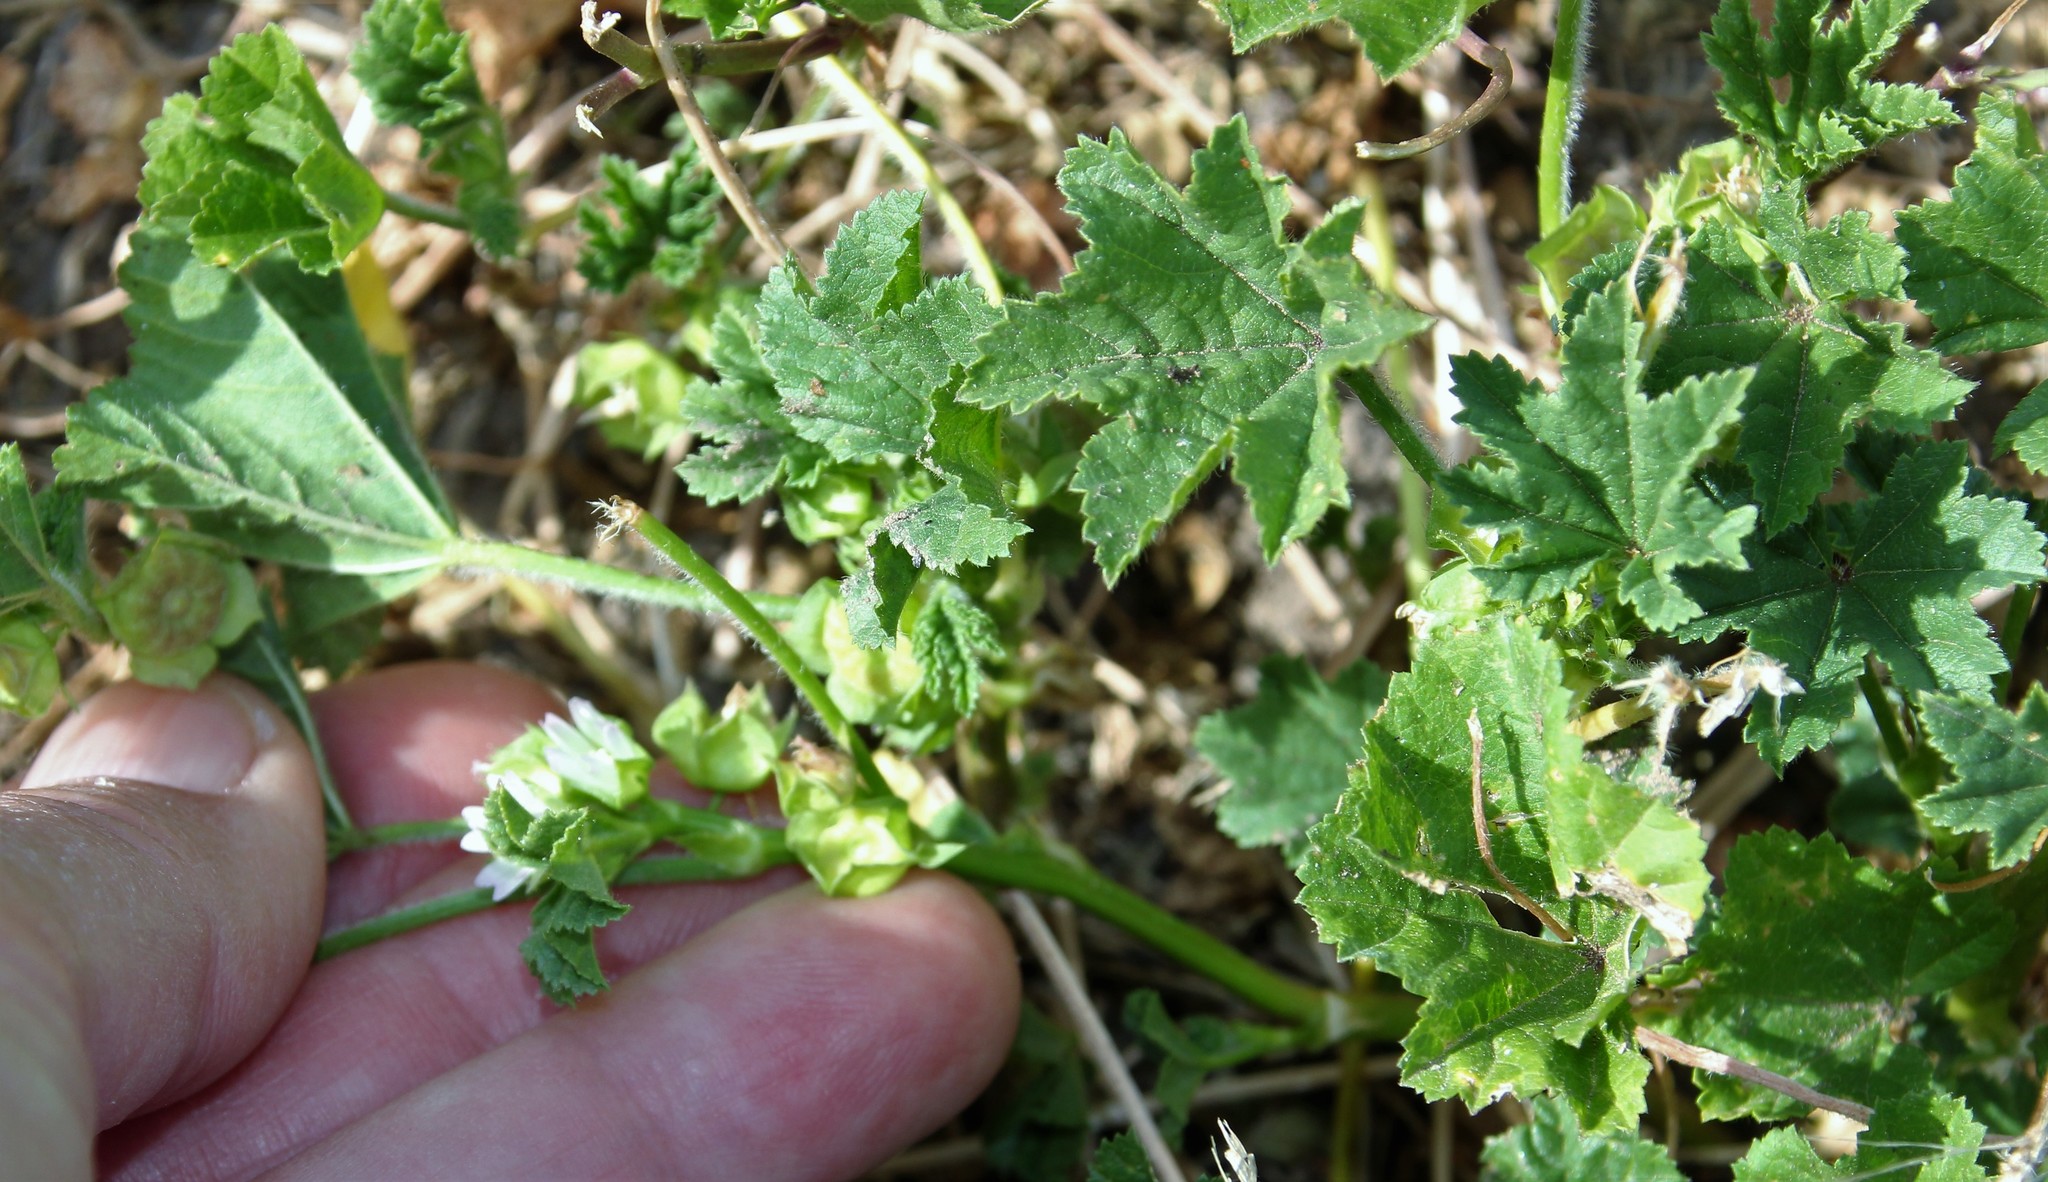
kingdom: Plantae
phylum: Tracheophyta
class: Magnoliopsida
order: Malvales
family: Malvaceae
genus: Malva
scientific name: Malva parviflora
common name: Least mallow
